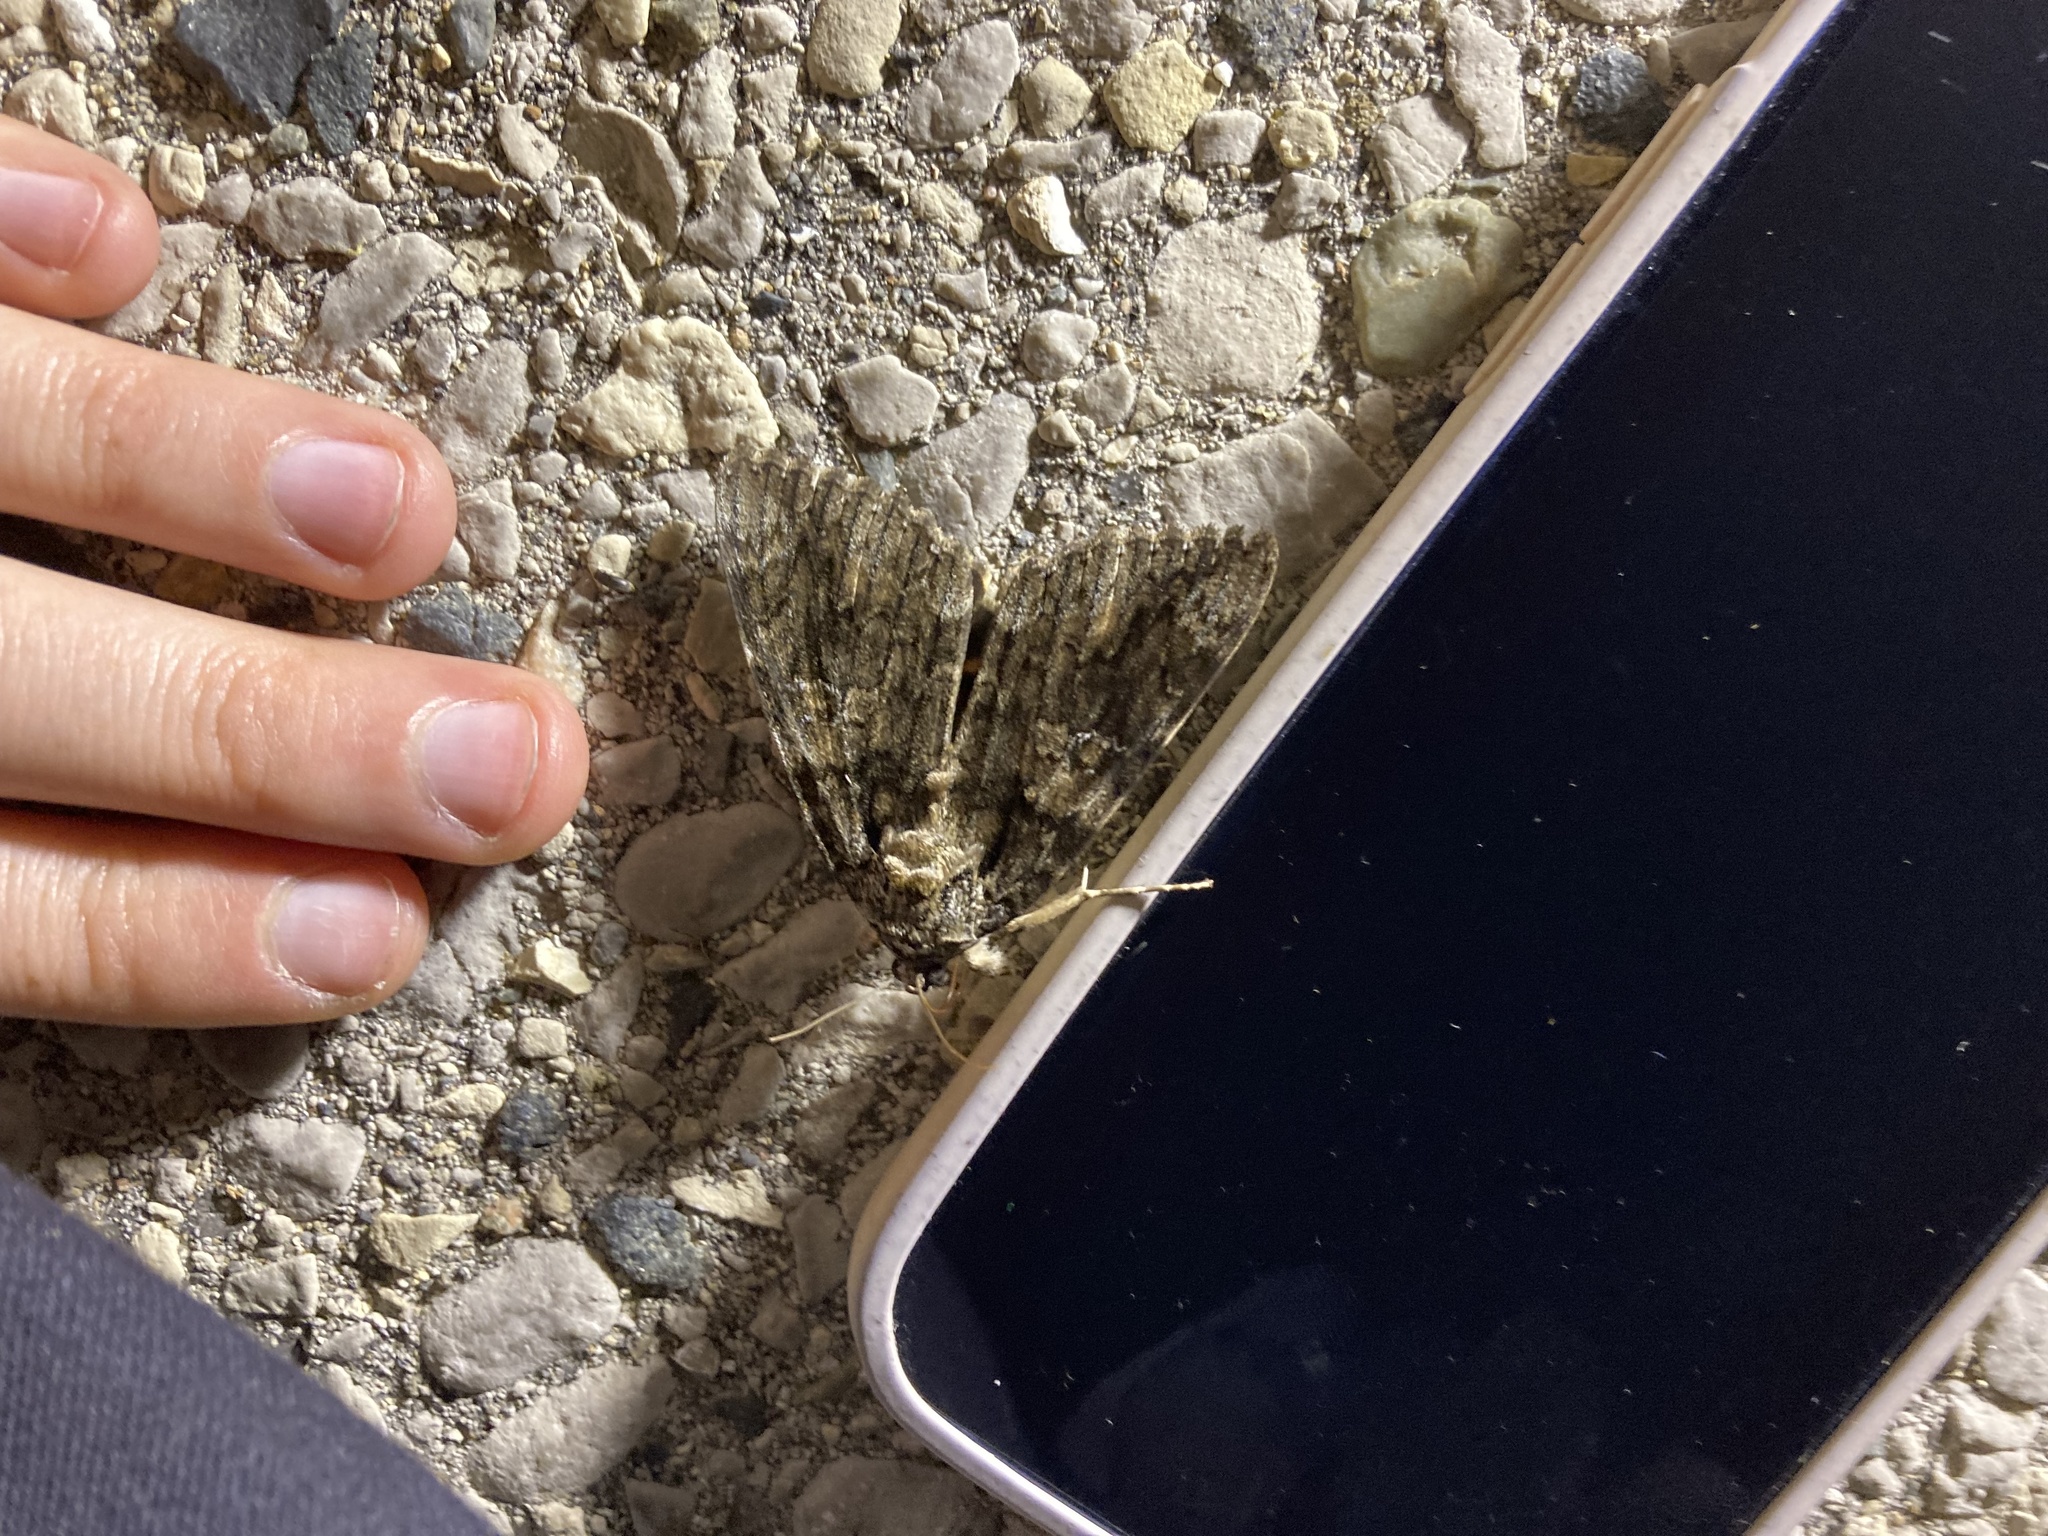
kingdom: Animalia
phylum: Arthropoda
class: Insecta
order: Lepidoptera
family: Erebidae
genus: Catocala
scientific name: Catocala ilia
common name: Ilia underwing
